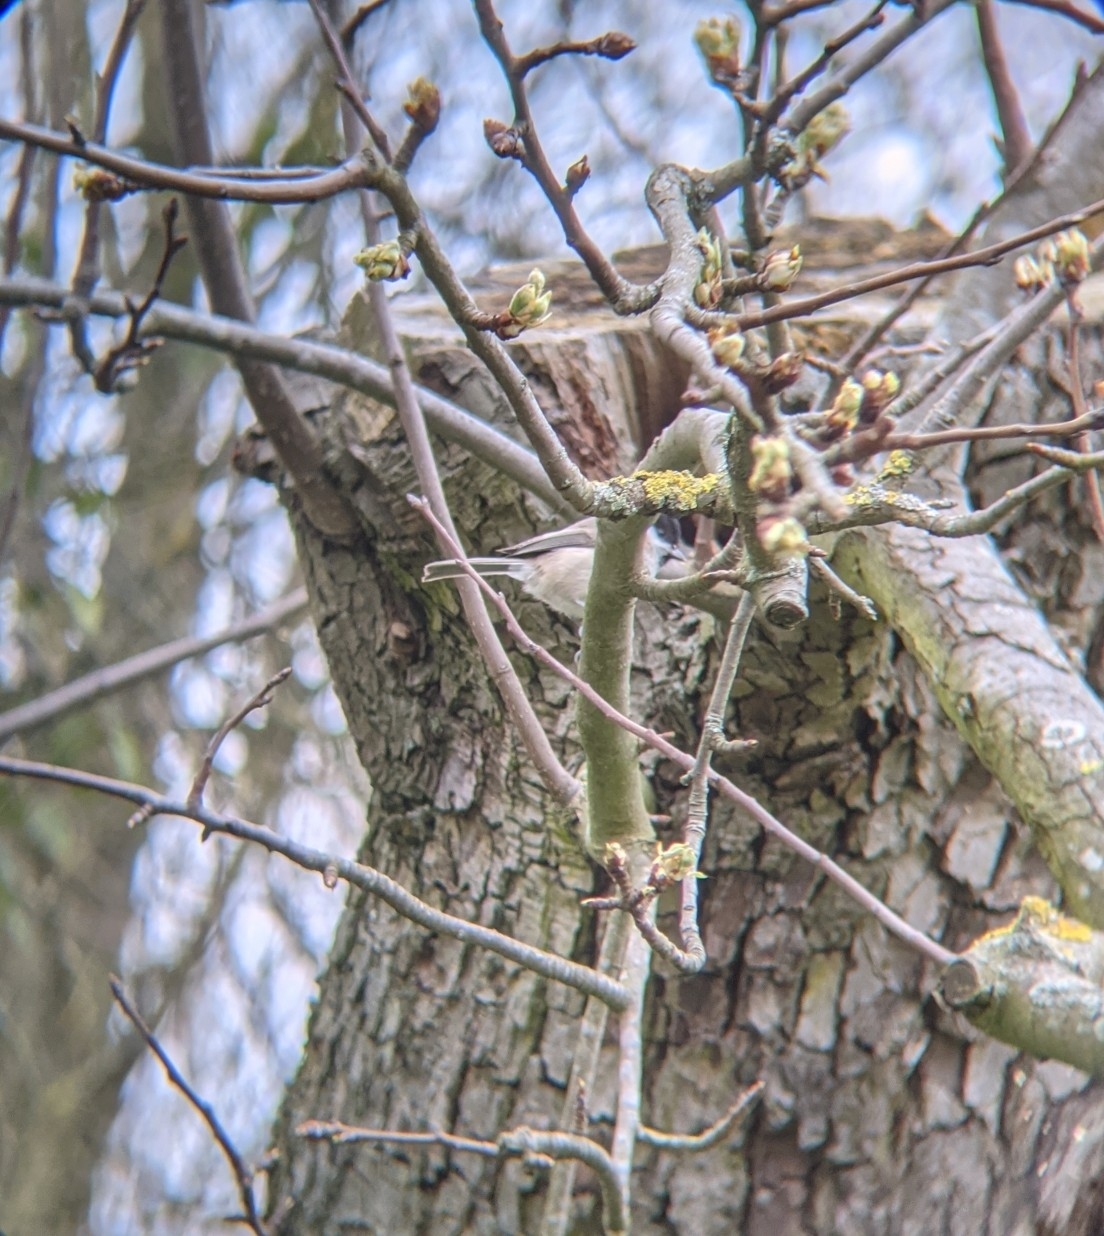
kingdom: Animalia
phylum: Chordata
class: Aves
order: Passeriformes
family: Paridae
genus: Poecile
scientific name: Poecile palustris
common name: Marsh tit
